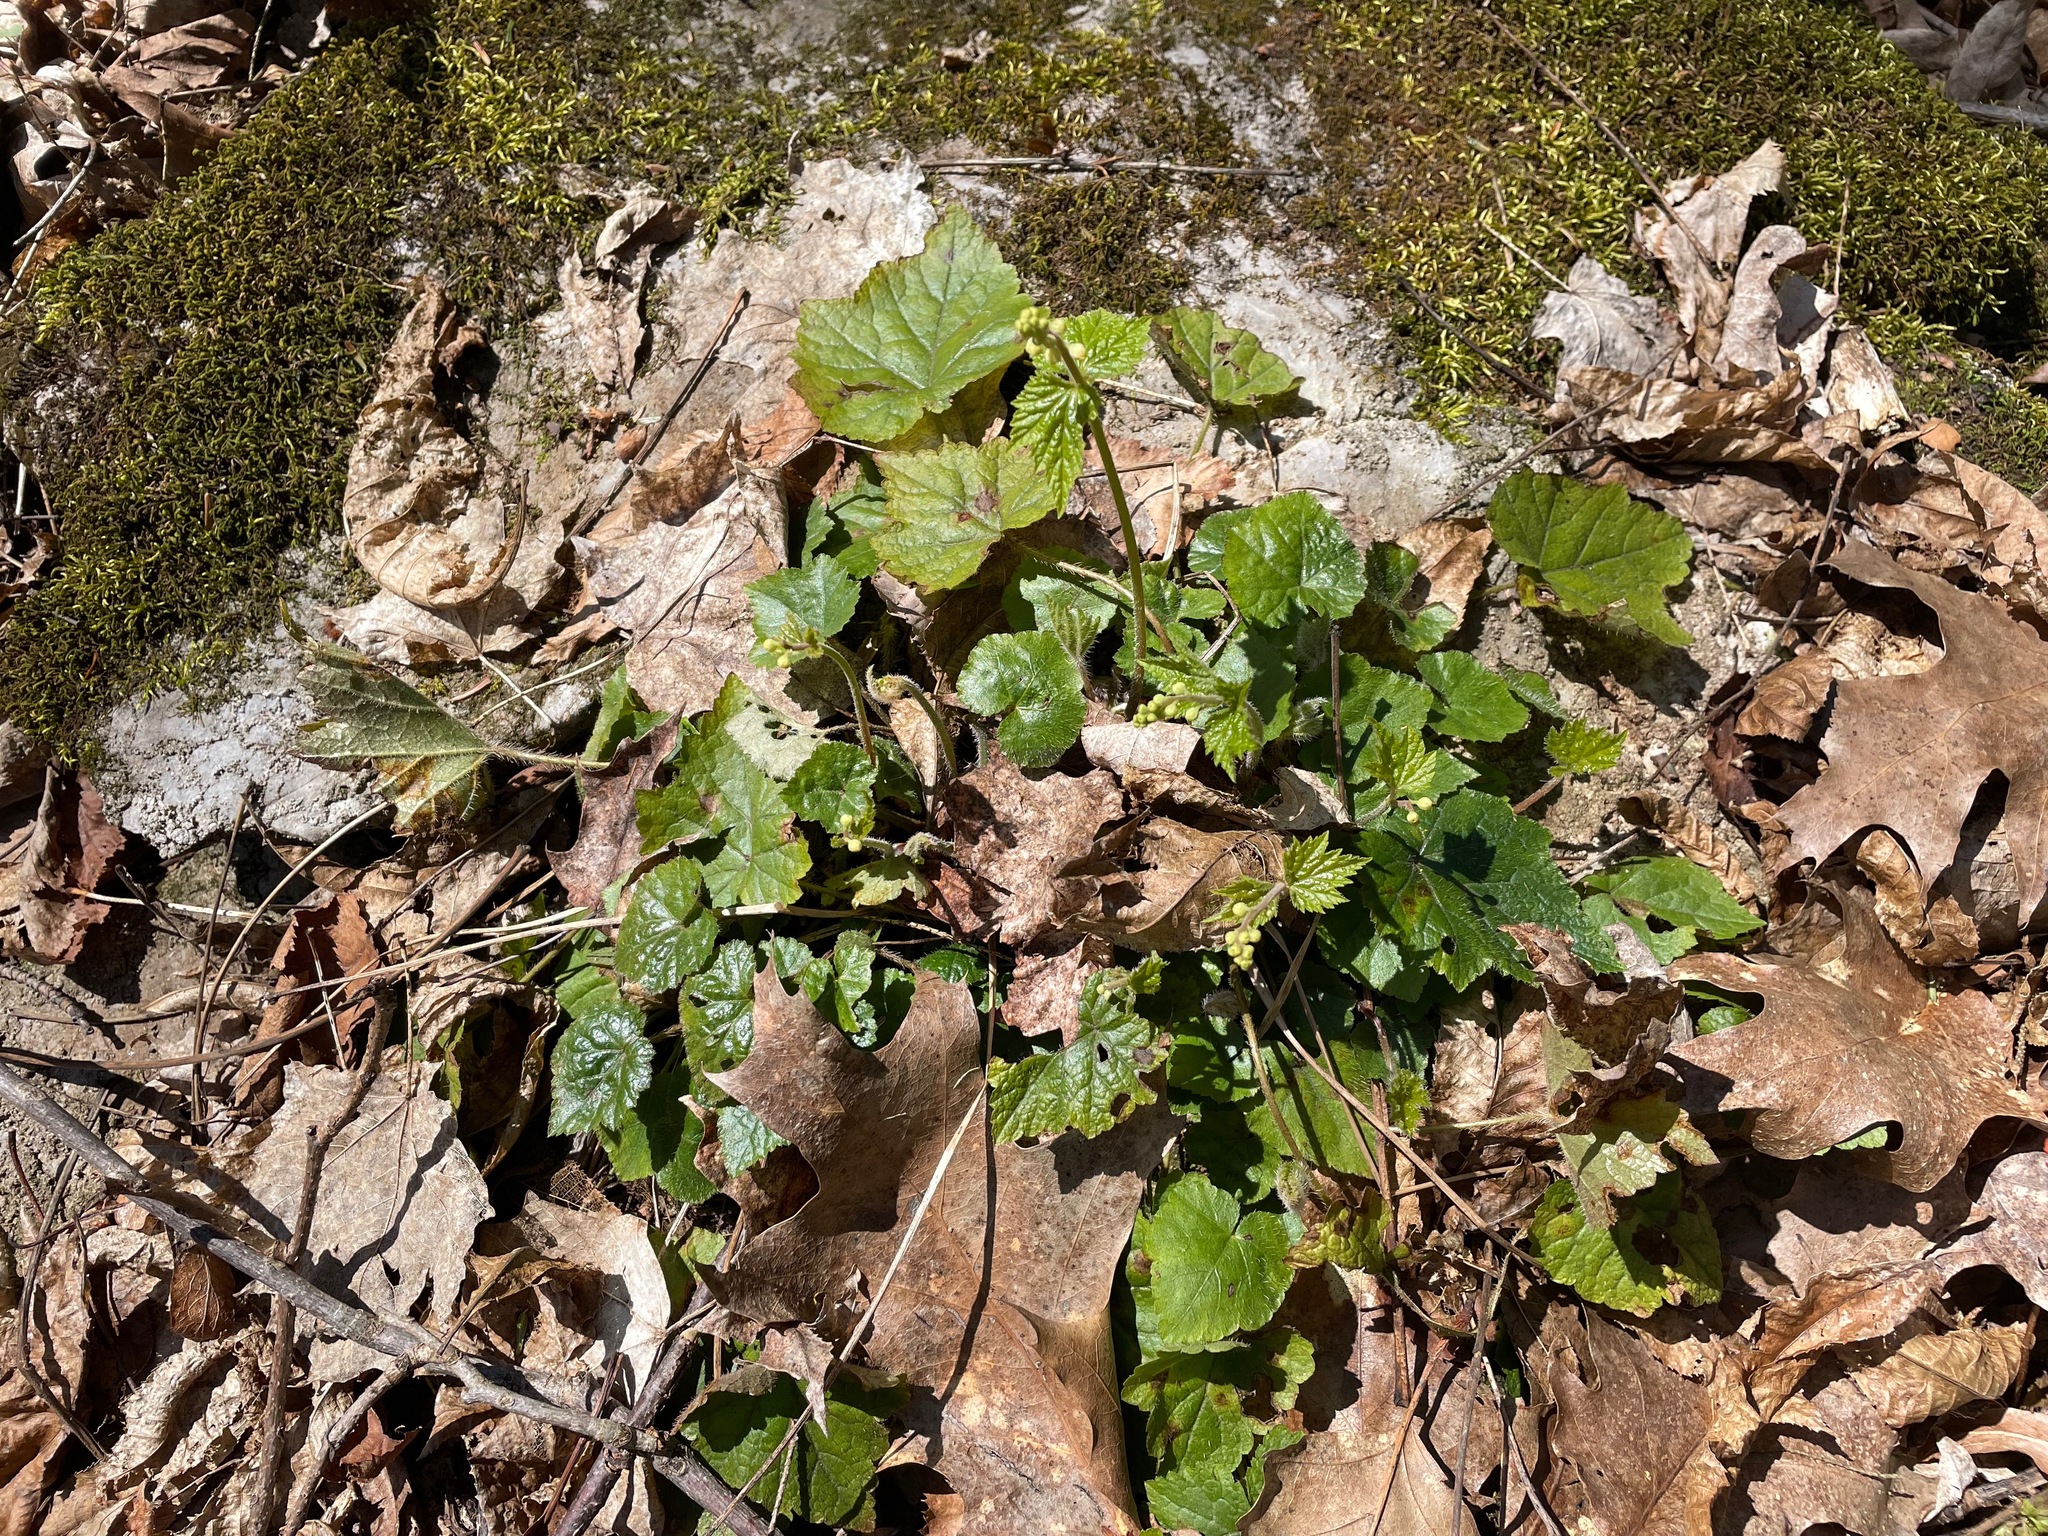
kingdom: Plantae
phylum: Tracheophyta
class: Magnoliopsida
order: Saxifragales
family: Saxifragaceae
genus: Mitella
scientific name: Mitella diphylla
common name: Coolwort
